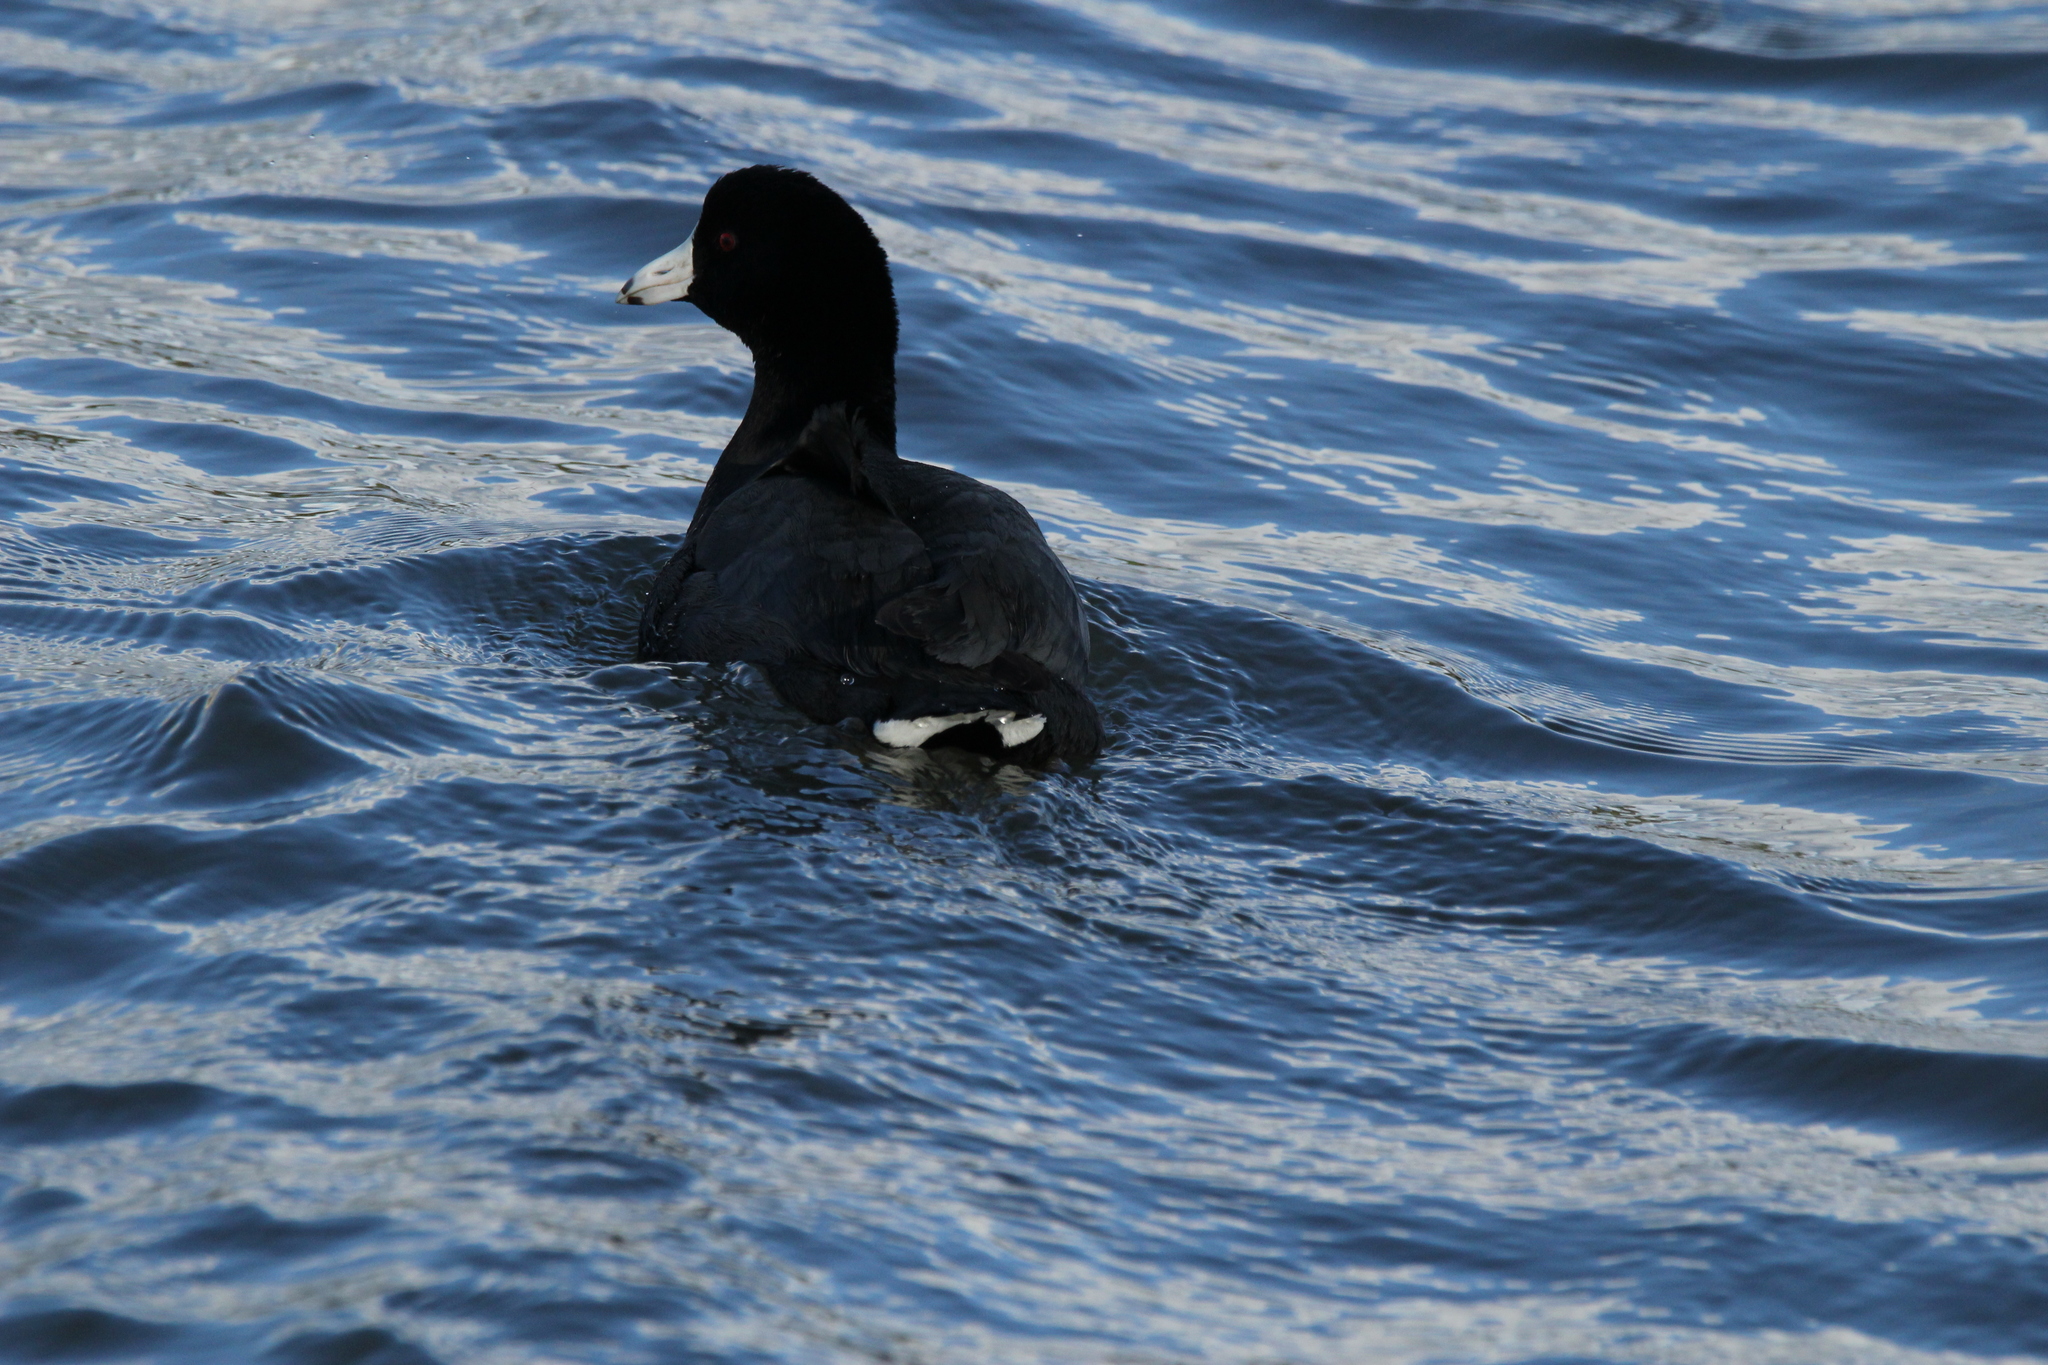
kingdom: Animalia
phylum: Chordata
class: Aves
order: Gruiformes
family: Rallidae
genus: Fulica
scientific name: Fulica americana
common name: American coot
